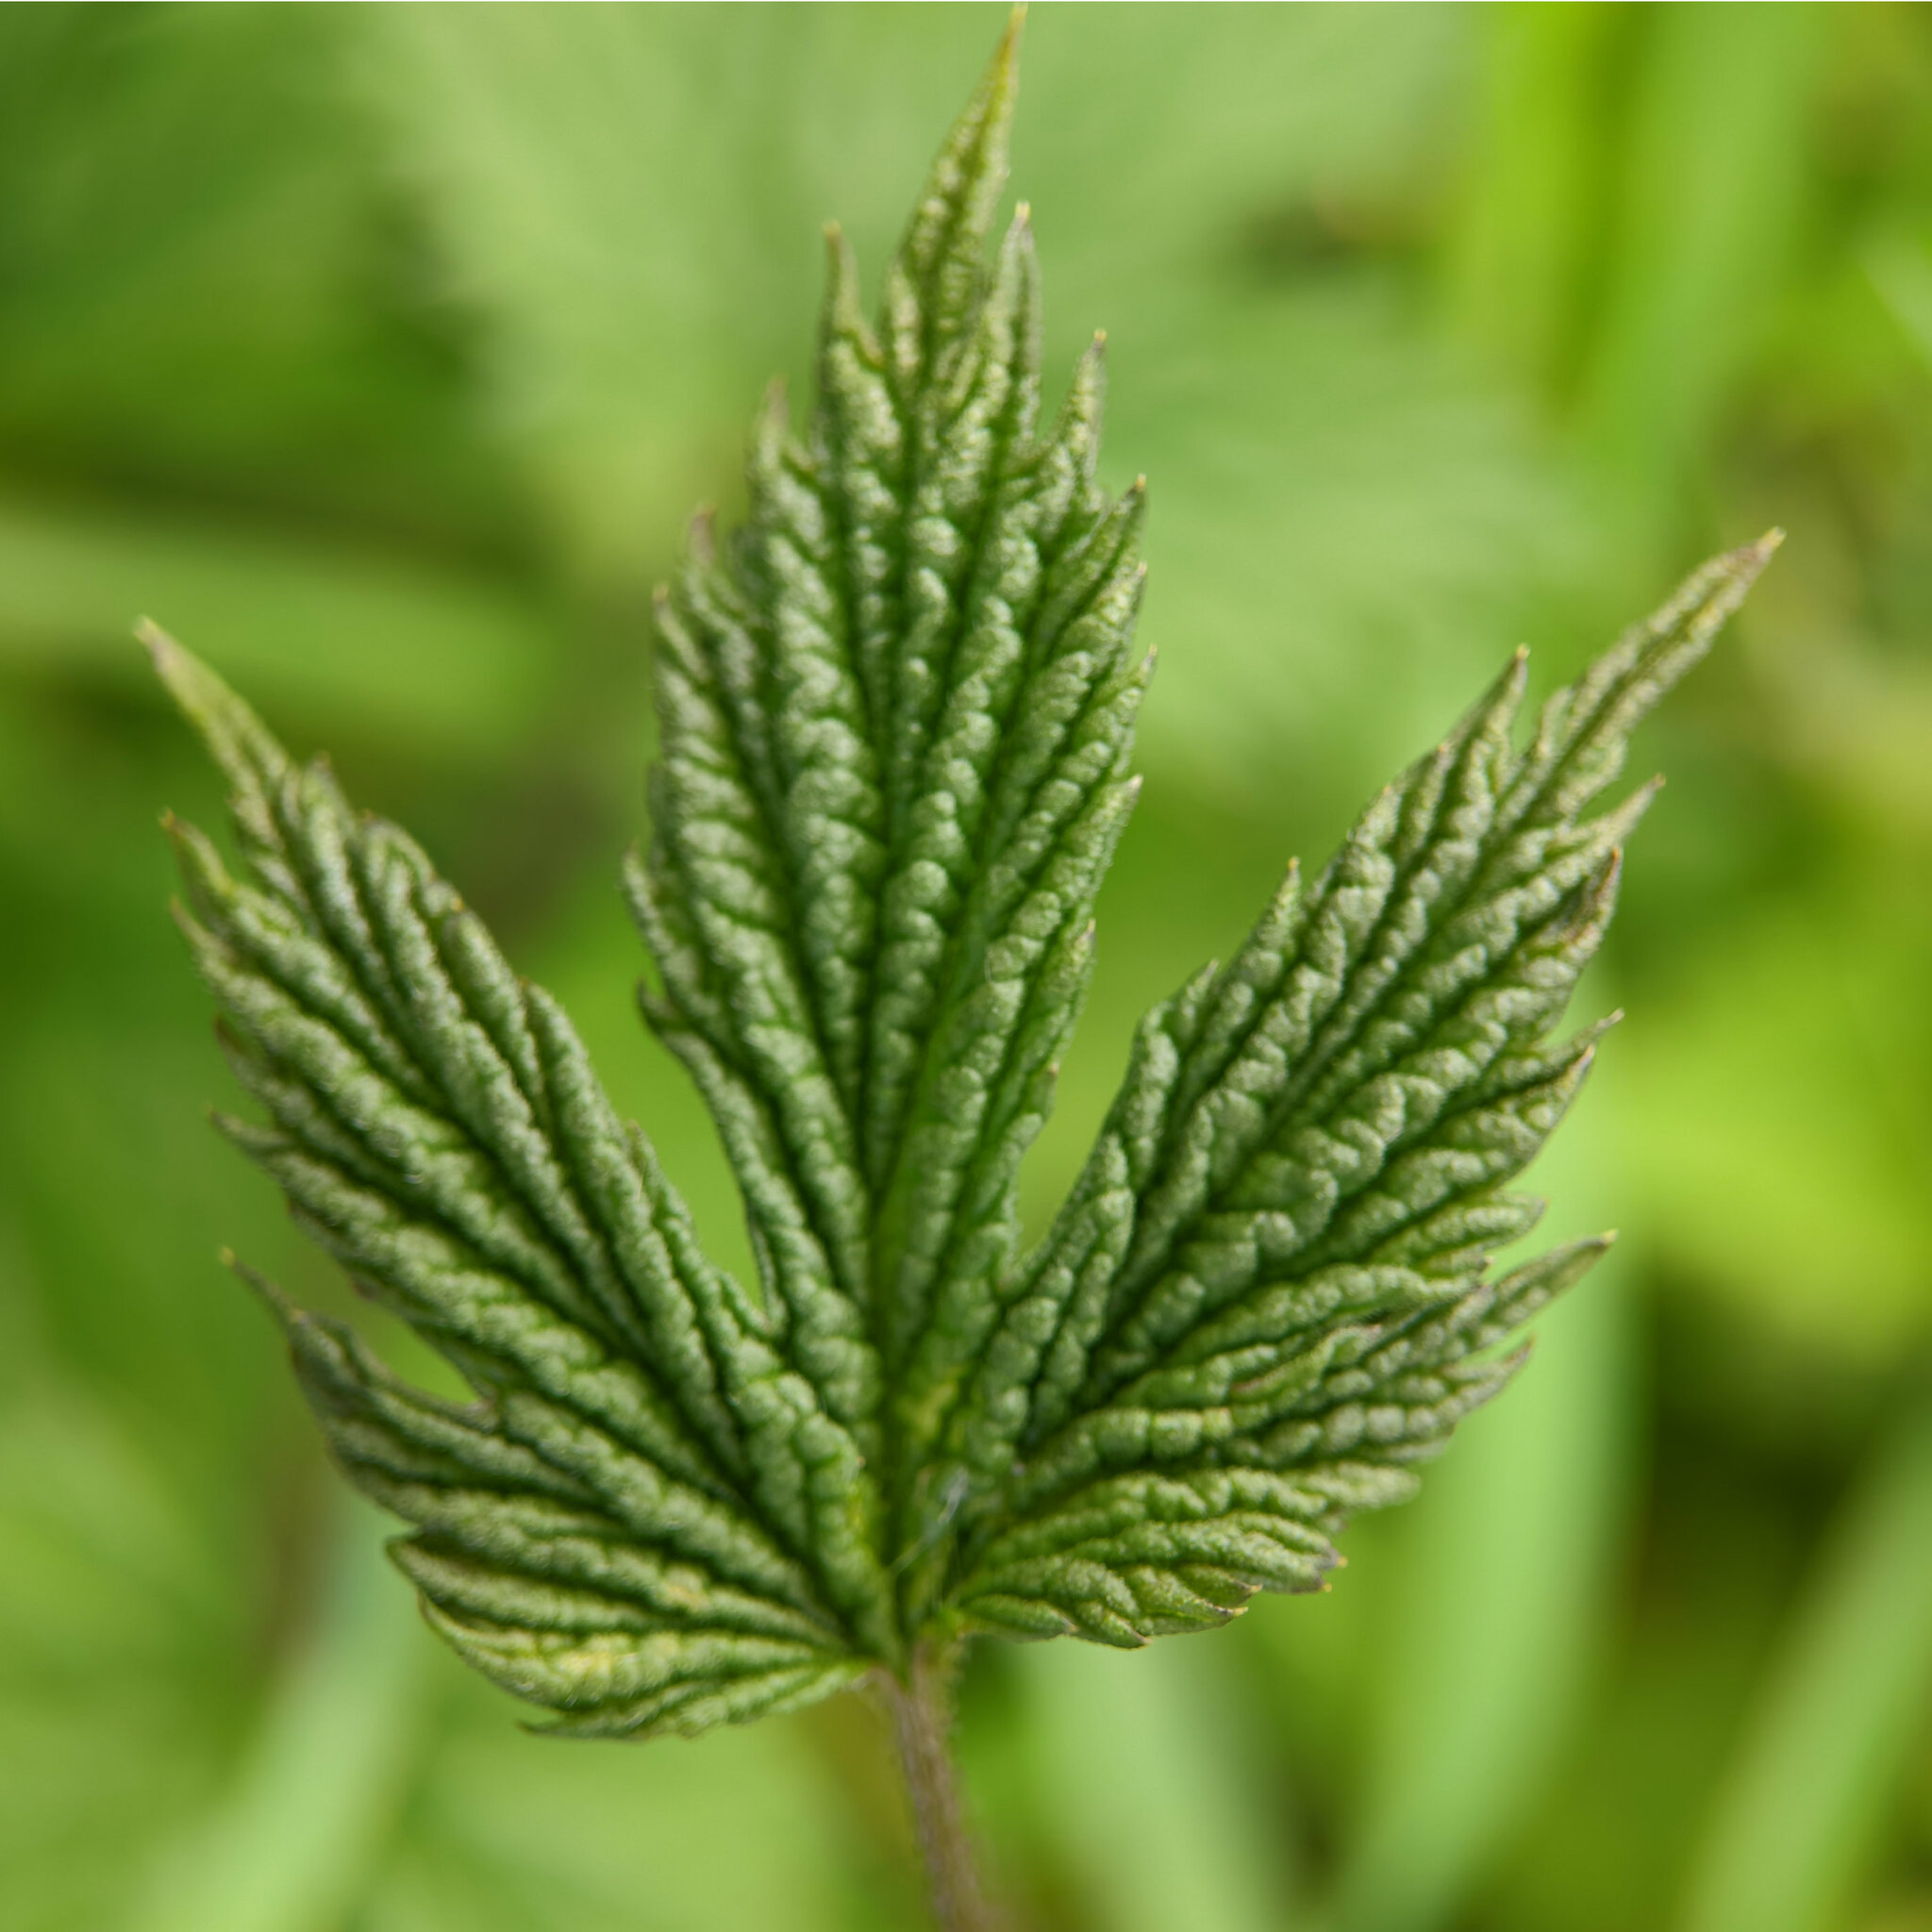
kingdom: Plantae
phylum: Tracheophyta
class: Magnoliopsida
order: Rosales
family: Cannabaceae
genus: Humulus
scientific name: Humulus lupulus
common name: Hop
